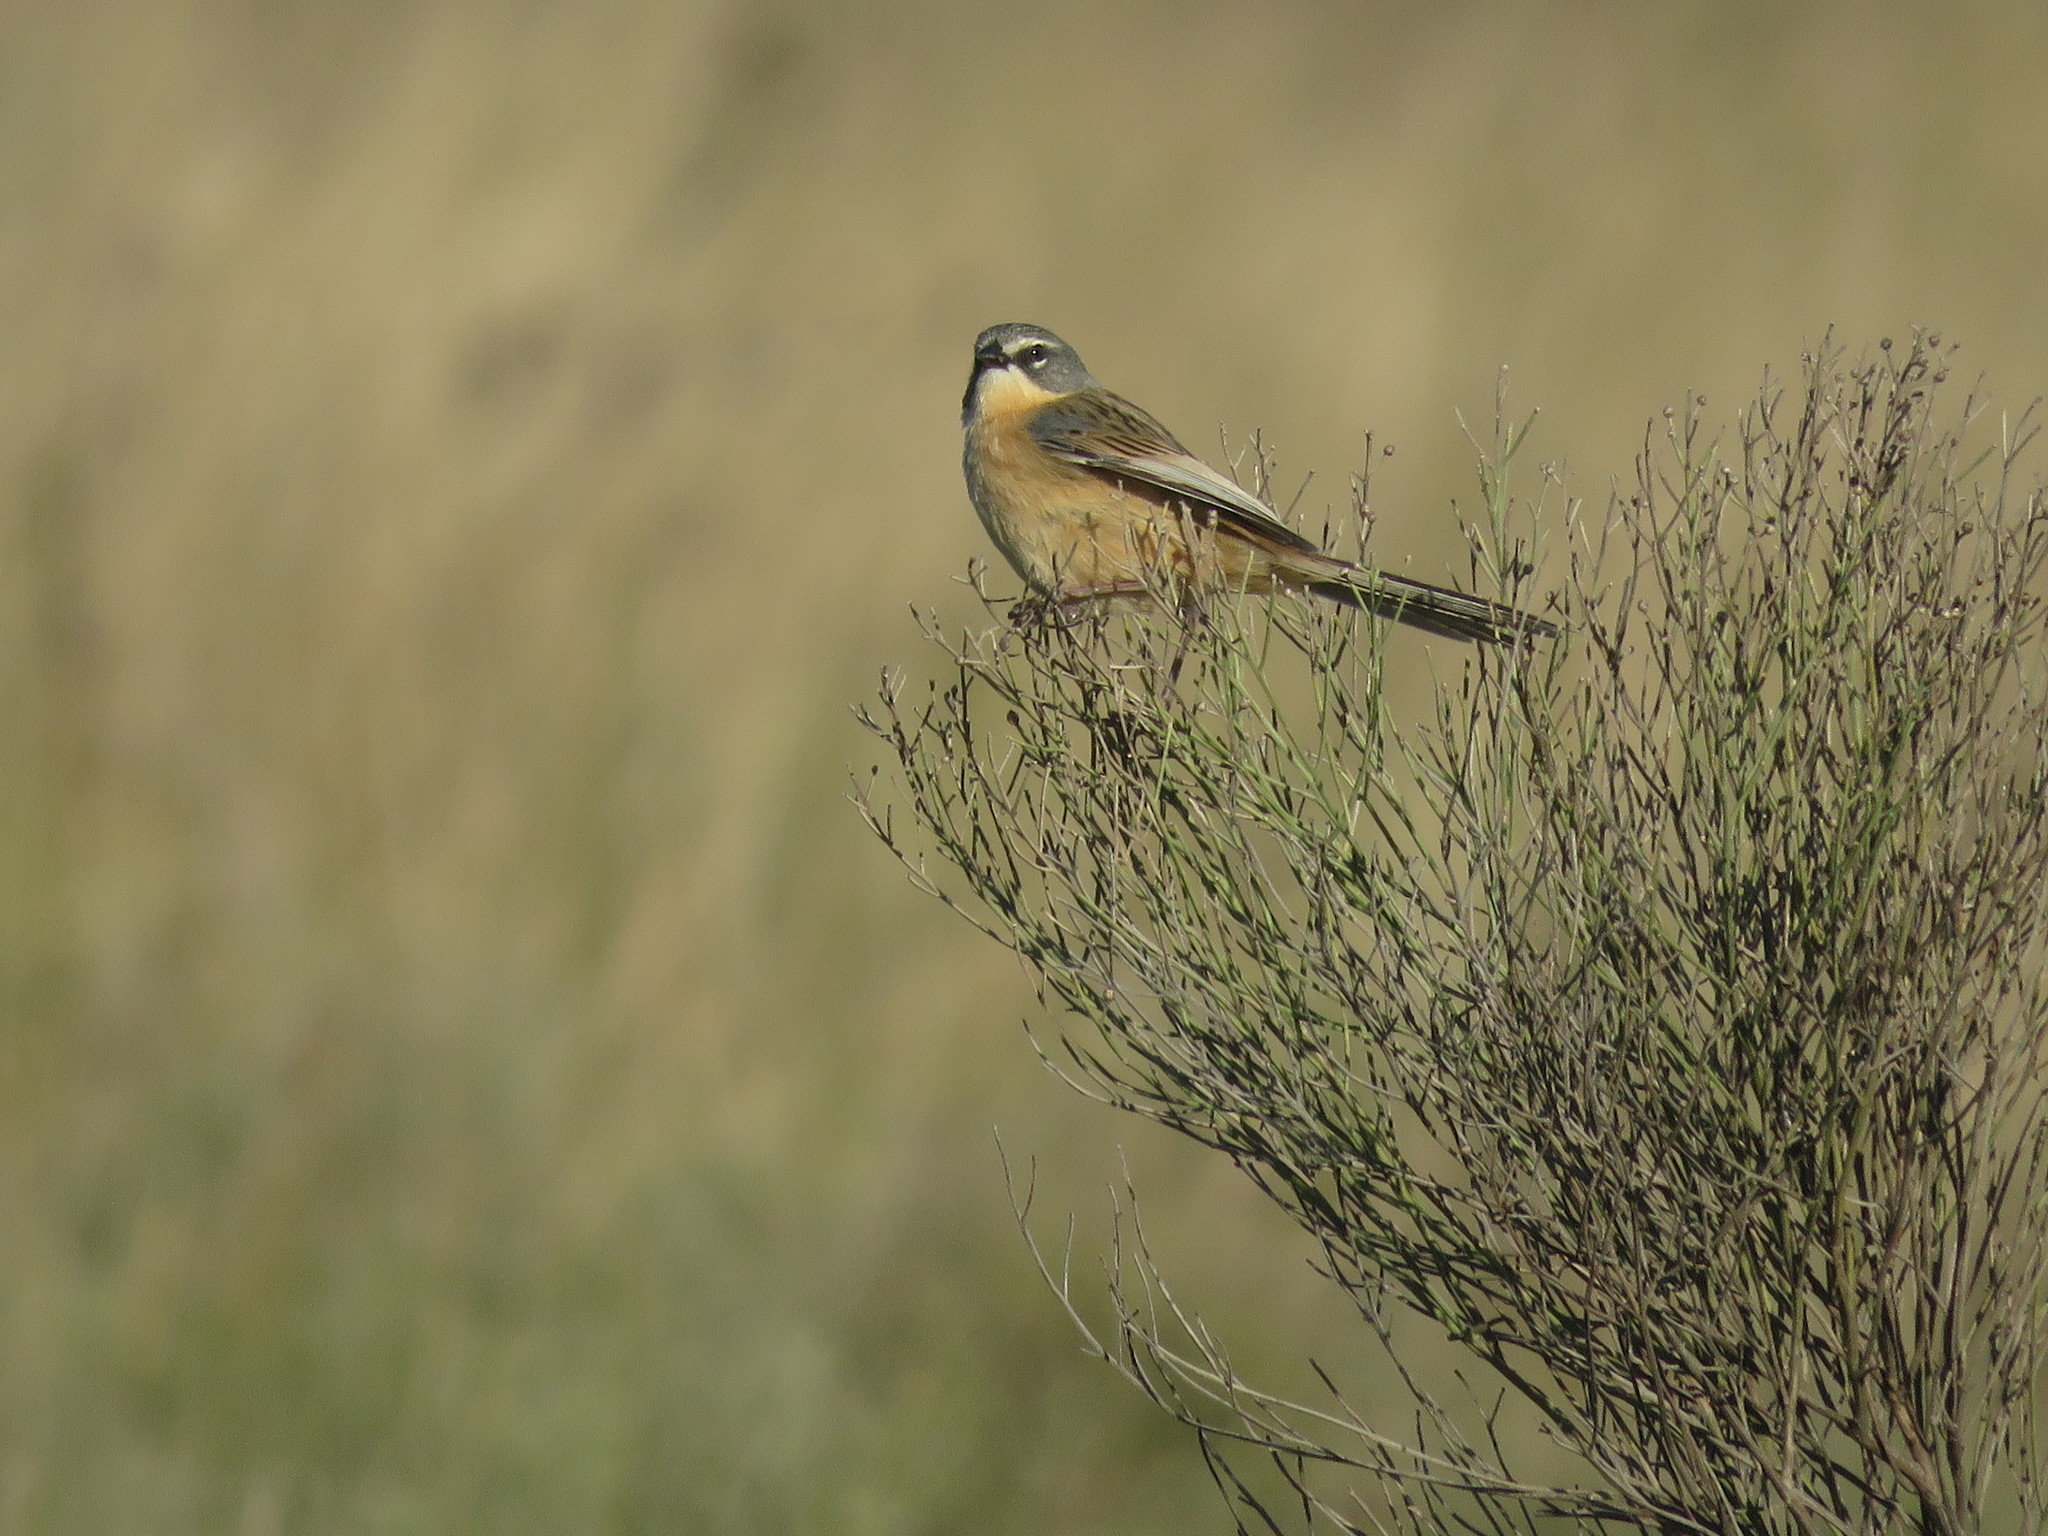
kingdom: Animalia
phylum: Chordata
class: Aves
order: Passeriformes
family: Thraupidae
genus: Donacospiza
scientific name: Donacospiza albifrons
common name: Long-tailed reed finch
